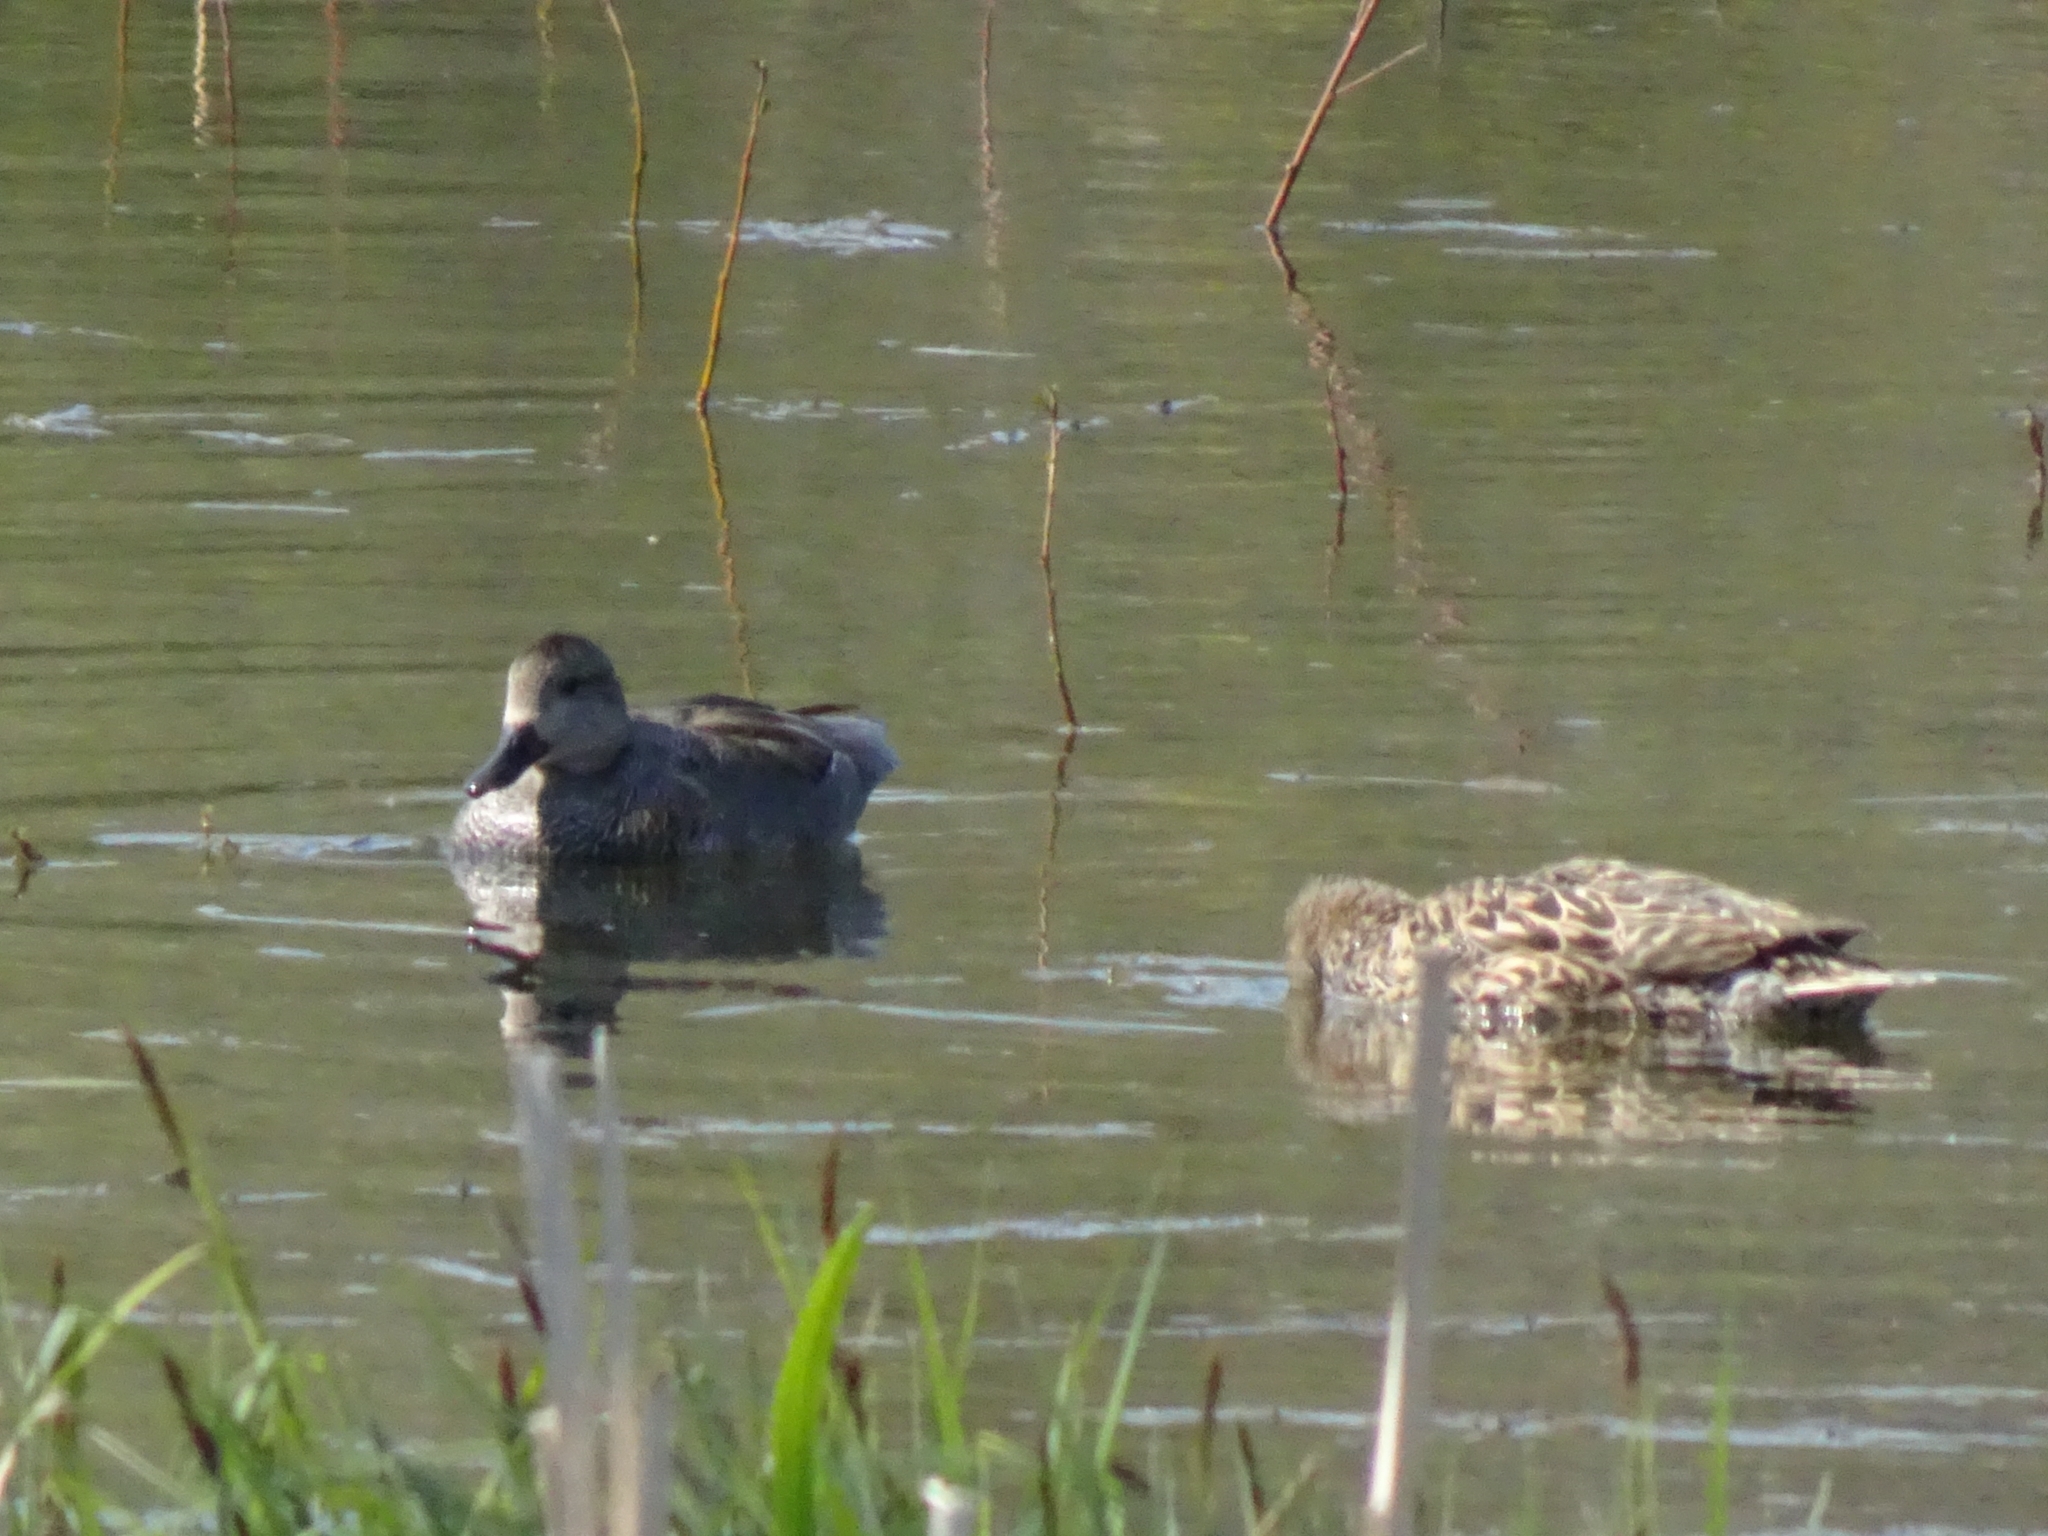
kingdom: Animalia
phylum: Chordata
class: Aves
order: Anseriformes
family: Anatidae
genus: Mareca
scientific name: Mareca strepera
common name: Gadwall
